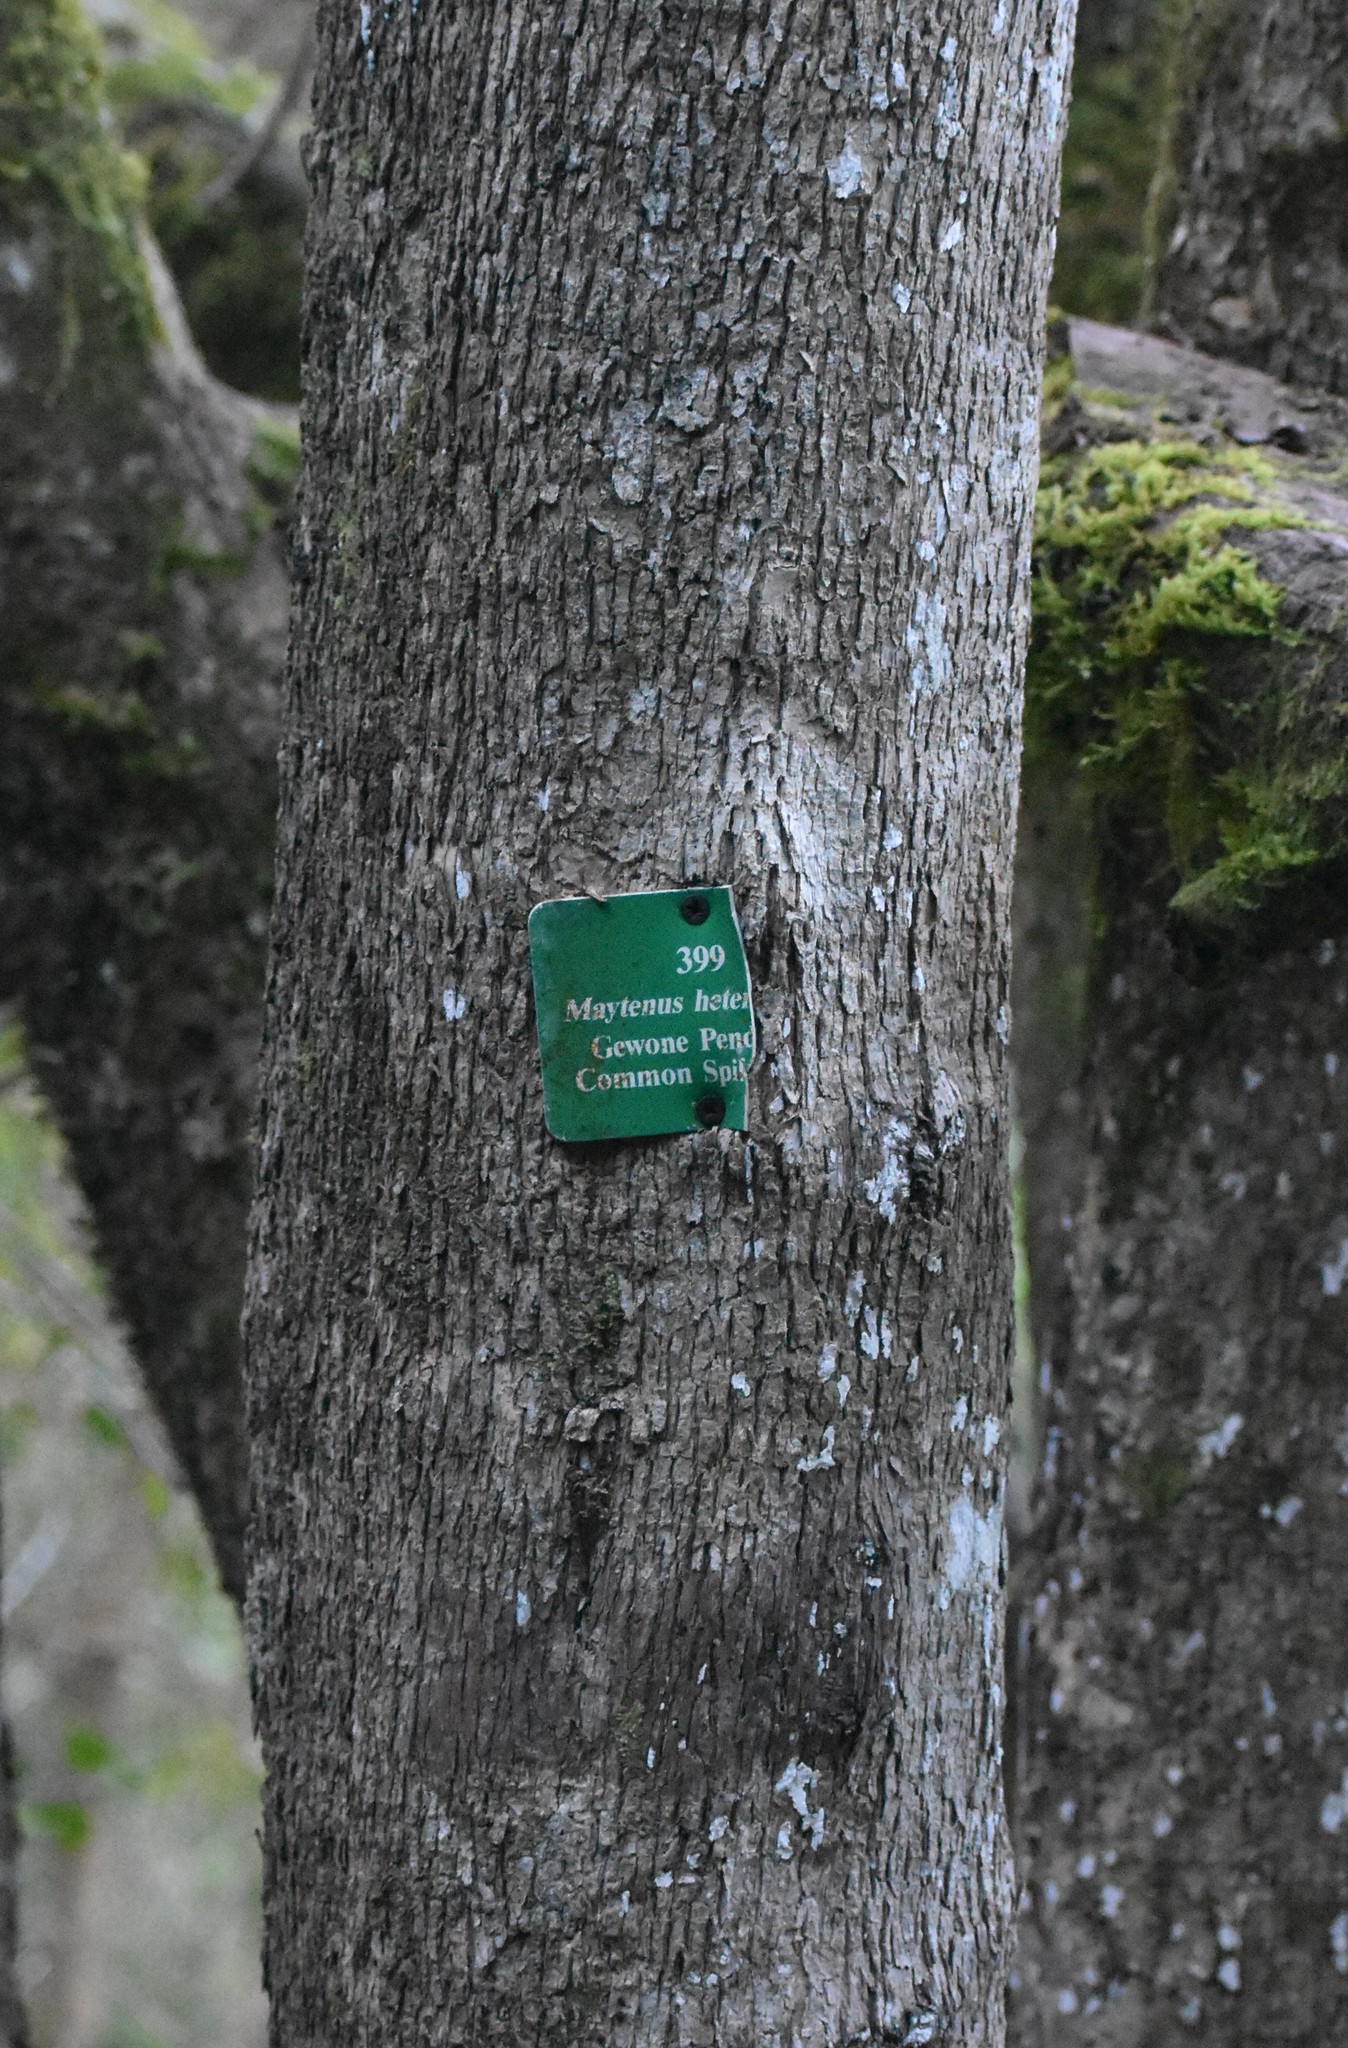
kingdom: Plantae
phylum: Tracheophyta
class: Magnoliopsida
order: Celastrales
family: Celastraceae
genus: Gymnosporia
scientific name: Gymnosporia buxifolia
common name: Common spike-thorn
